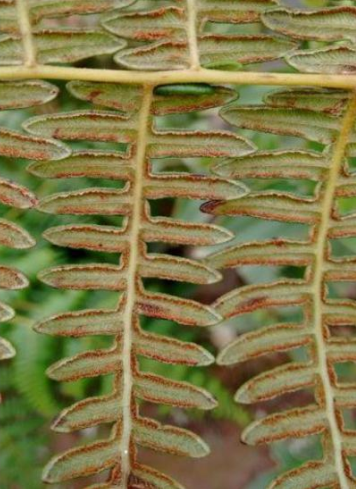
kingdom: Plantae
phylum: Tracheophyta
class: Polypodiopsida
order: Polypodiales
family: Dennstaedtiaceae
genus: Pteridium
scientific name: Pteridium esculentum
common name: Bracken fern
